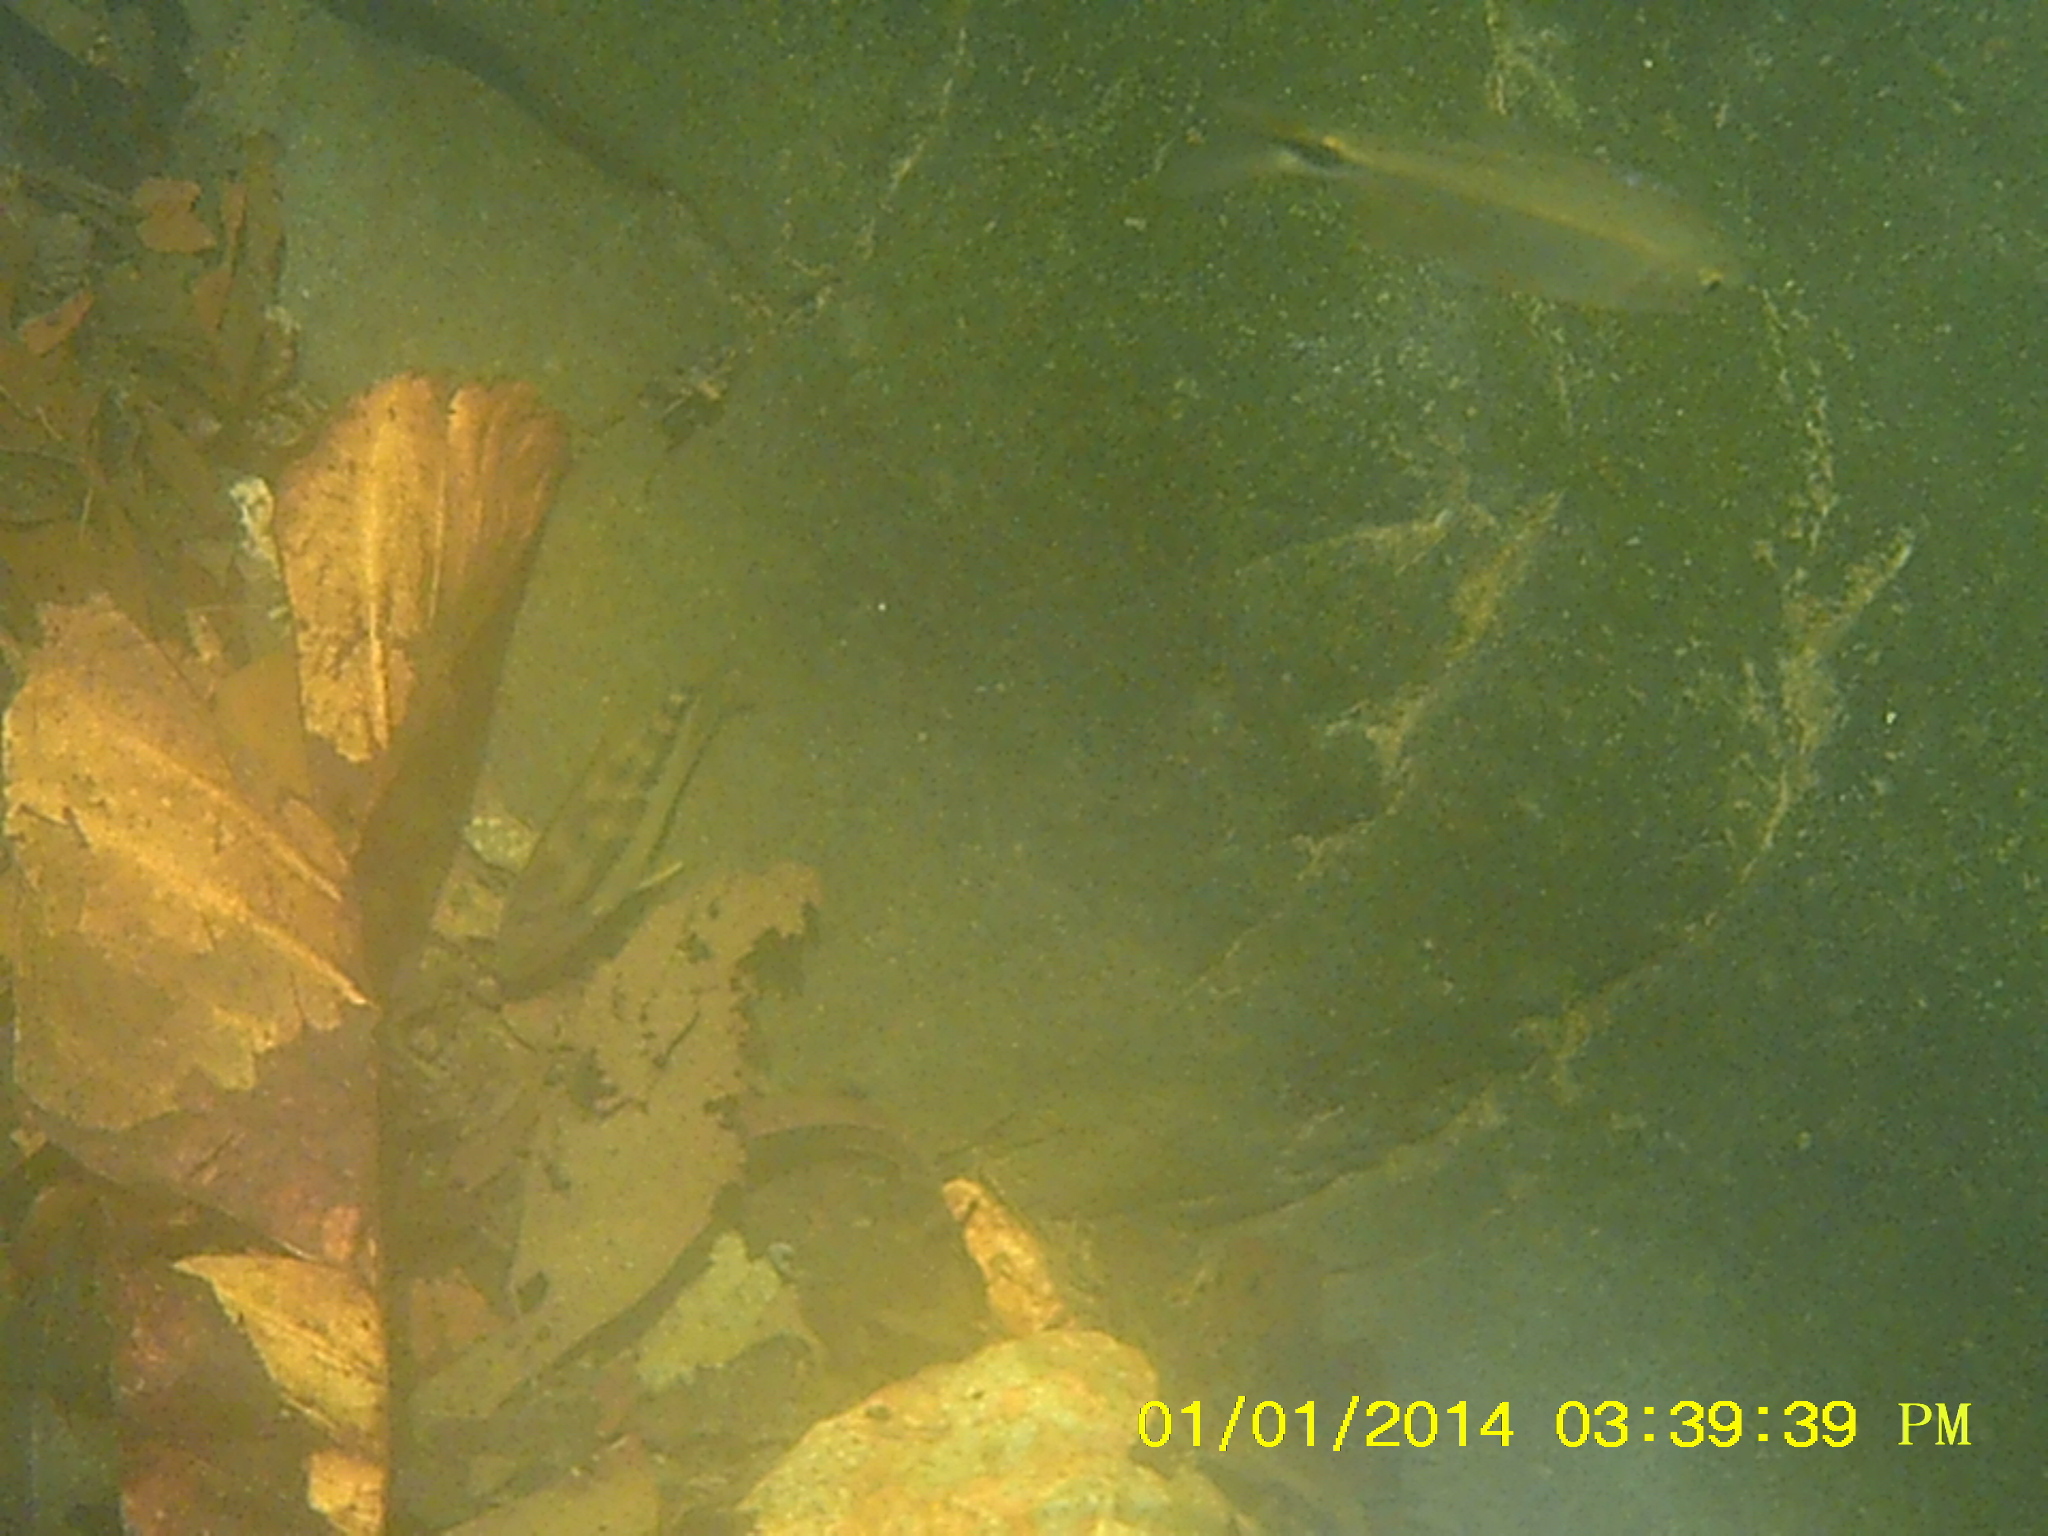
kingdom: Animalia
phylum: Chordata
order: Perciformes
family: Cichlidae
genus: Talamancaheros
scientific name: Talamancaheros sieboldii
